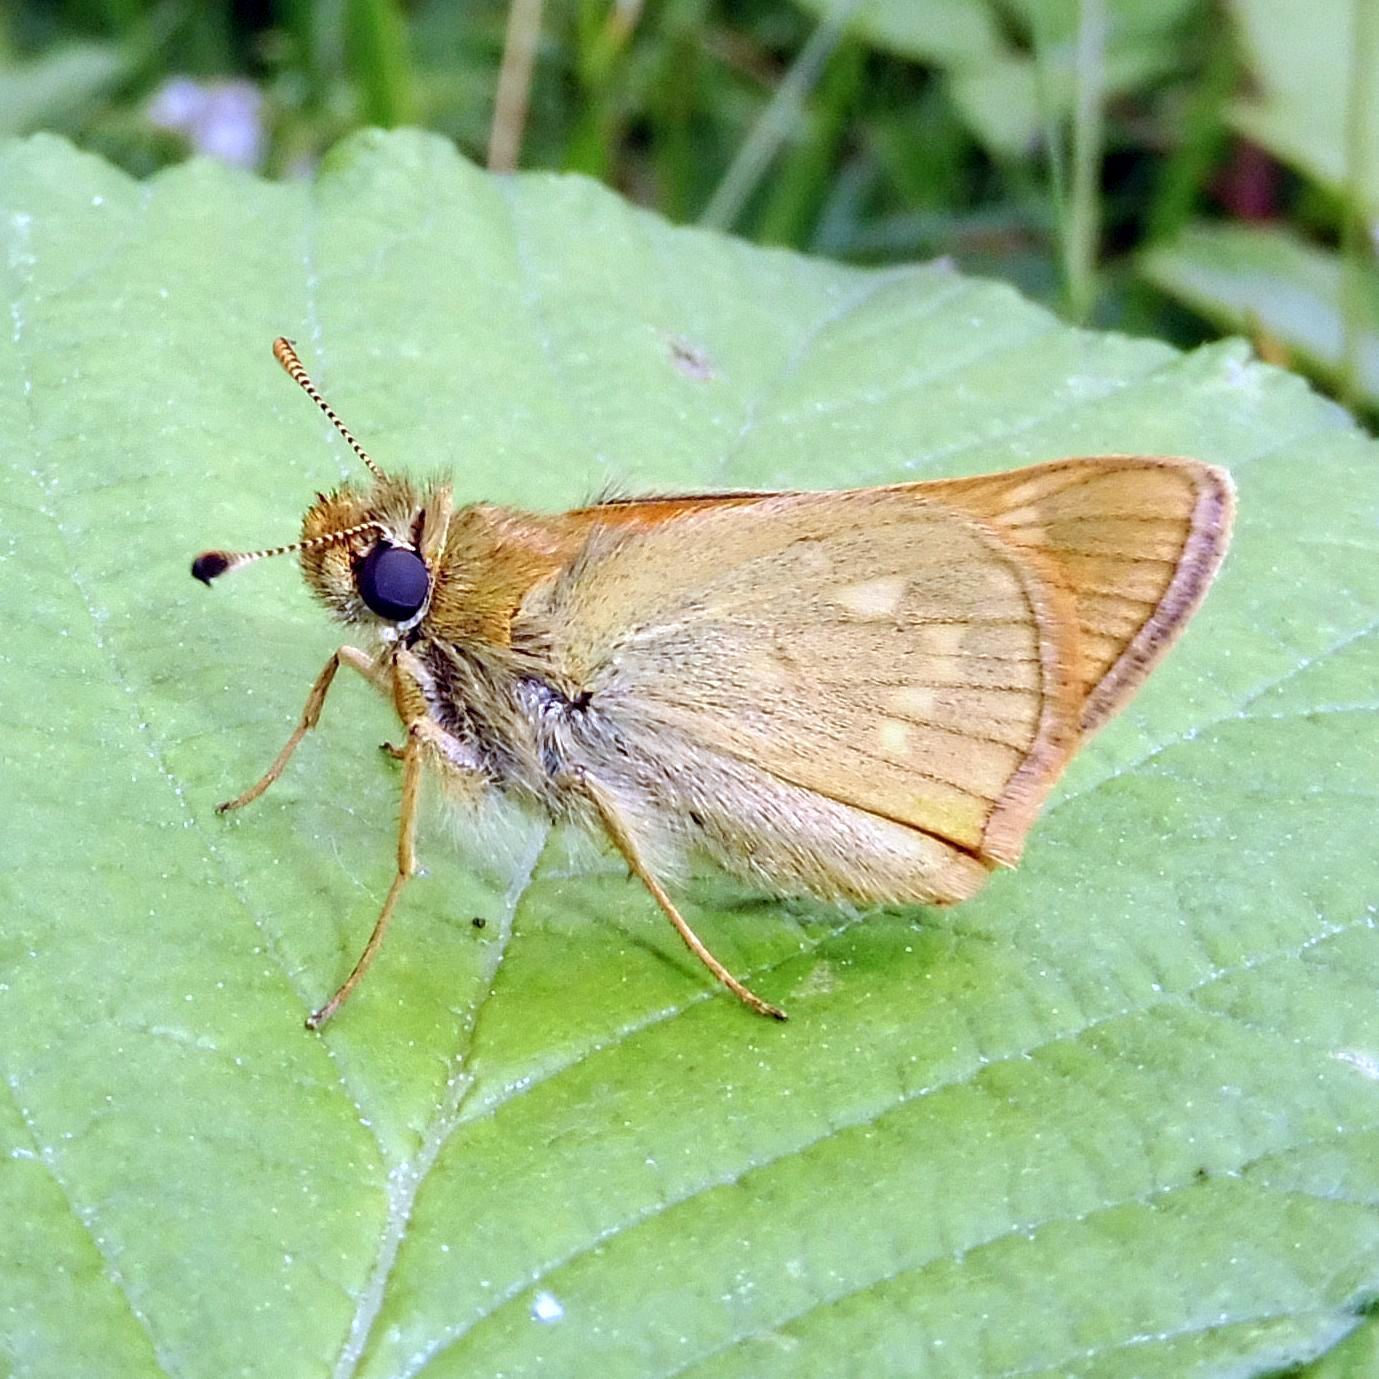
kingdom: Animalia
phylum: Arthropoda
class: Insecta
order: Lepidoptera
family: Hesperiidae
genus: Ochlodes
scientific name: Ochlodes venata
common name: Large skipper
